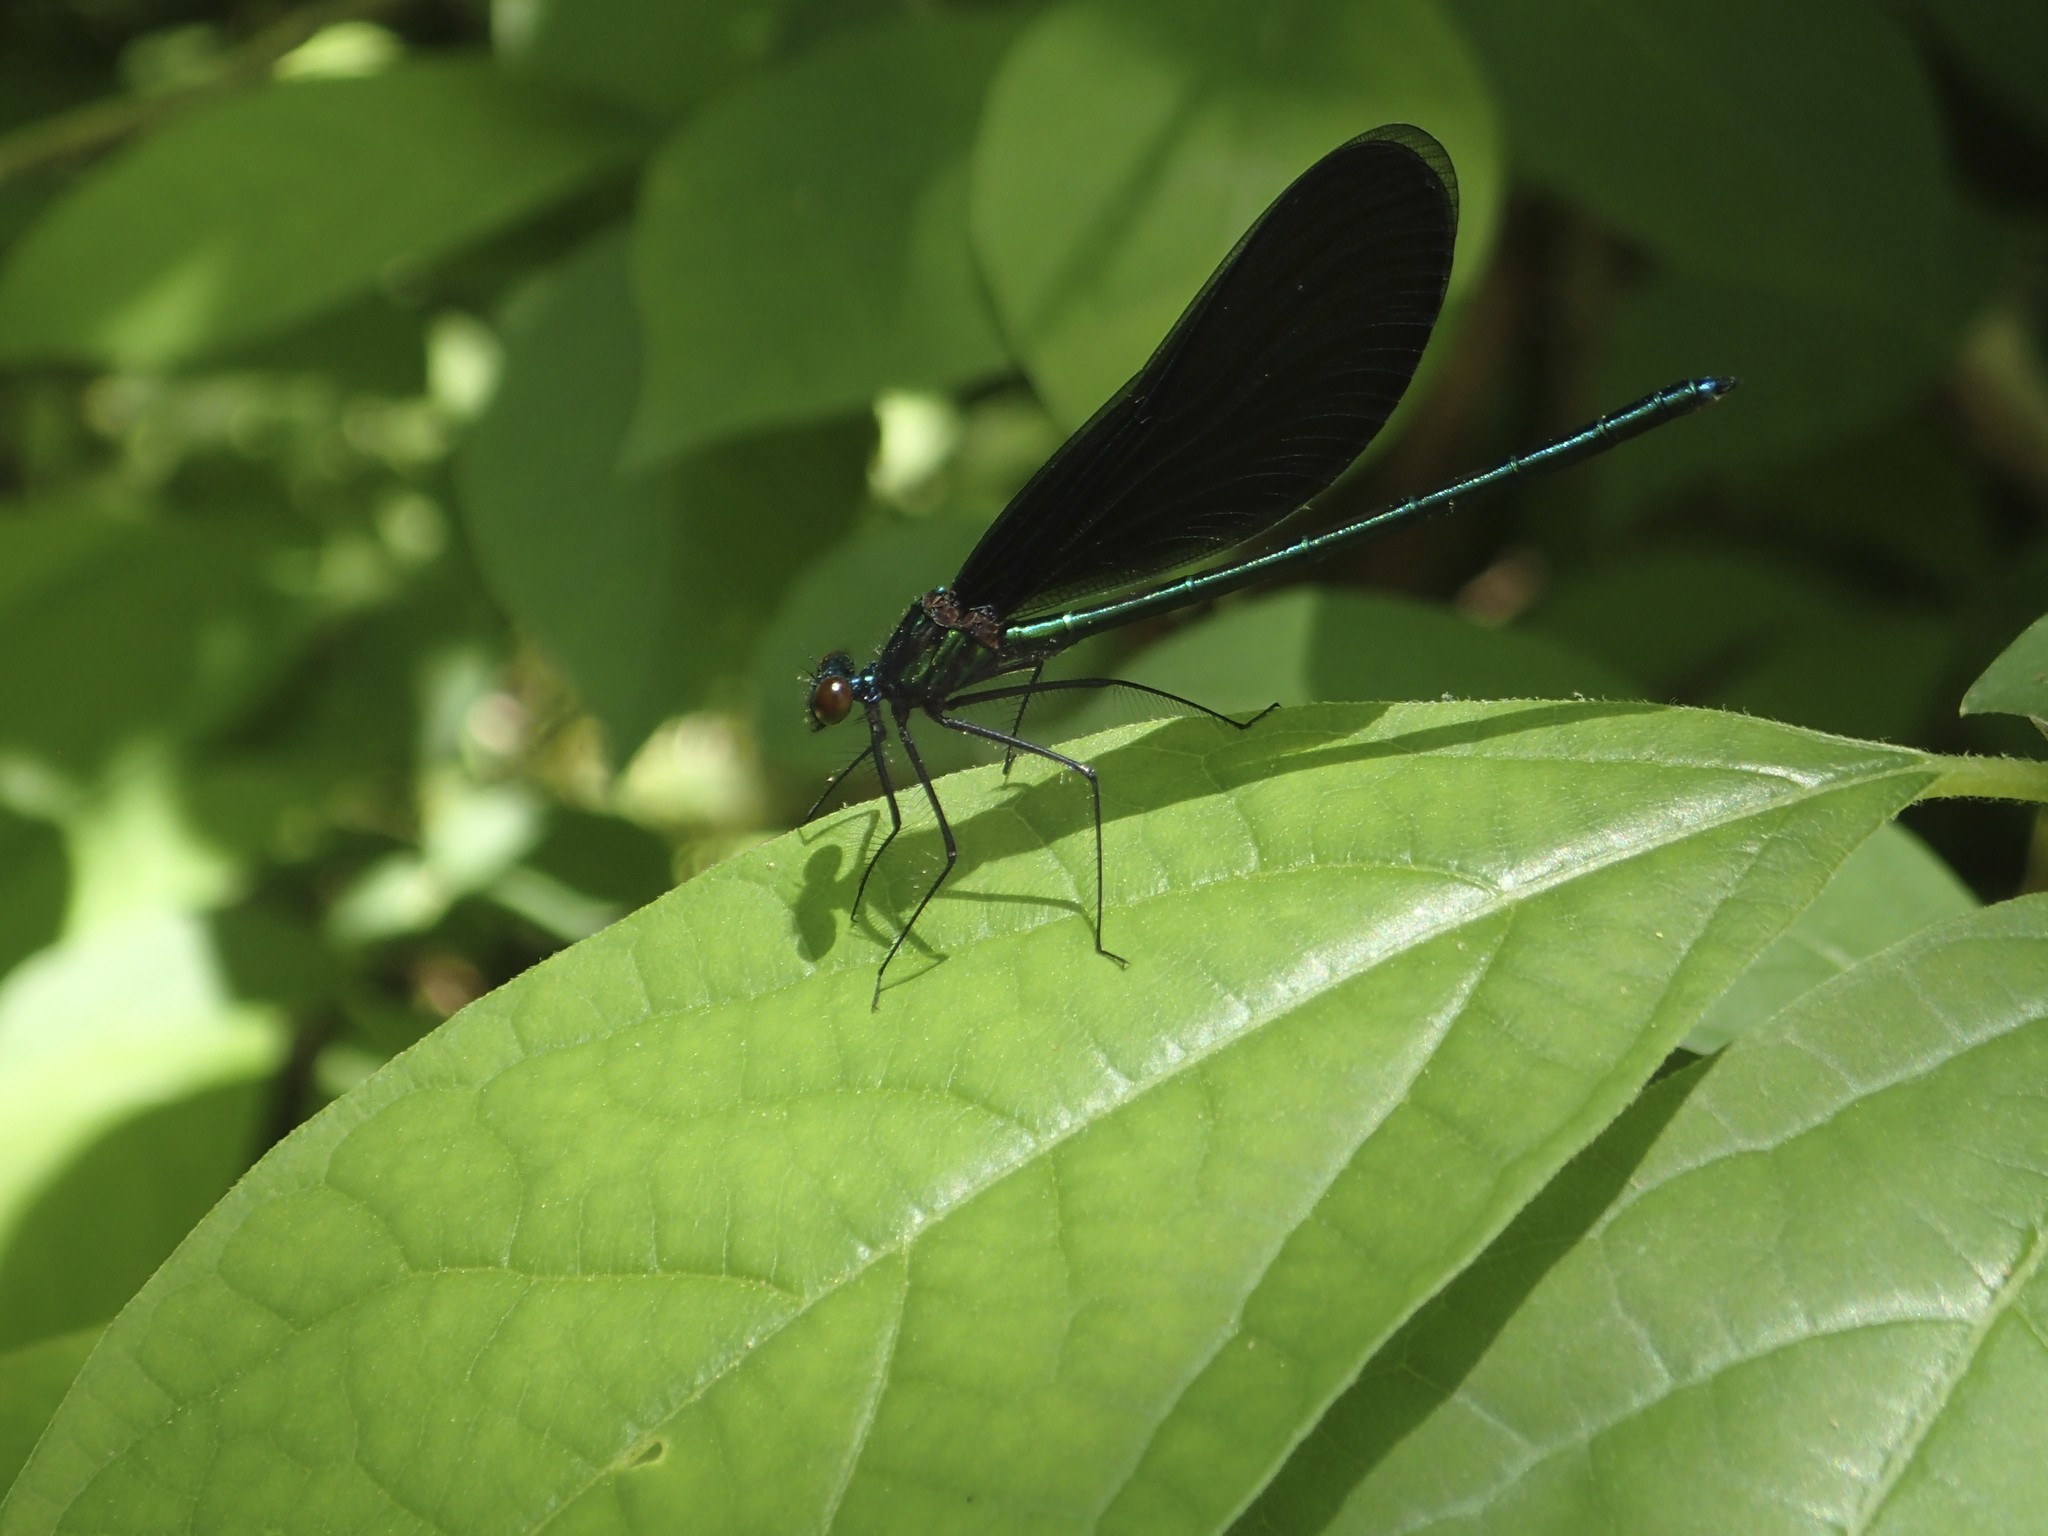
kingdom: Animalia
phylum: Arthropoda
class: Insecta
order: Odonata
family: Calopterygidae
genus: Calopteryx
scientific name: Calopteryx maculata
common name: Ebony jewelwing
